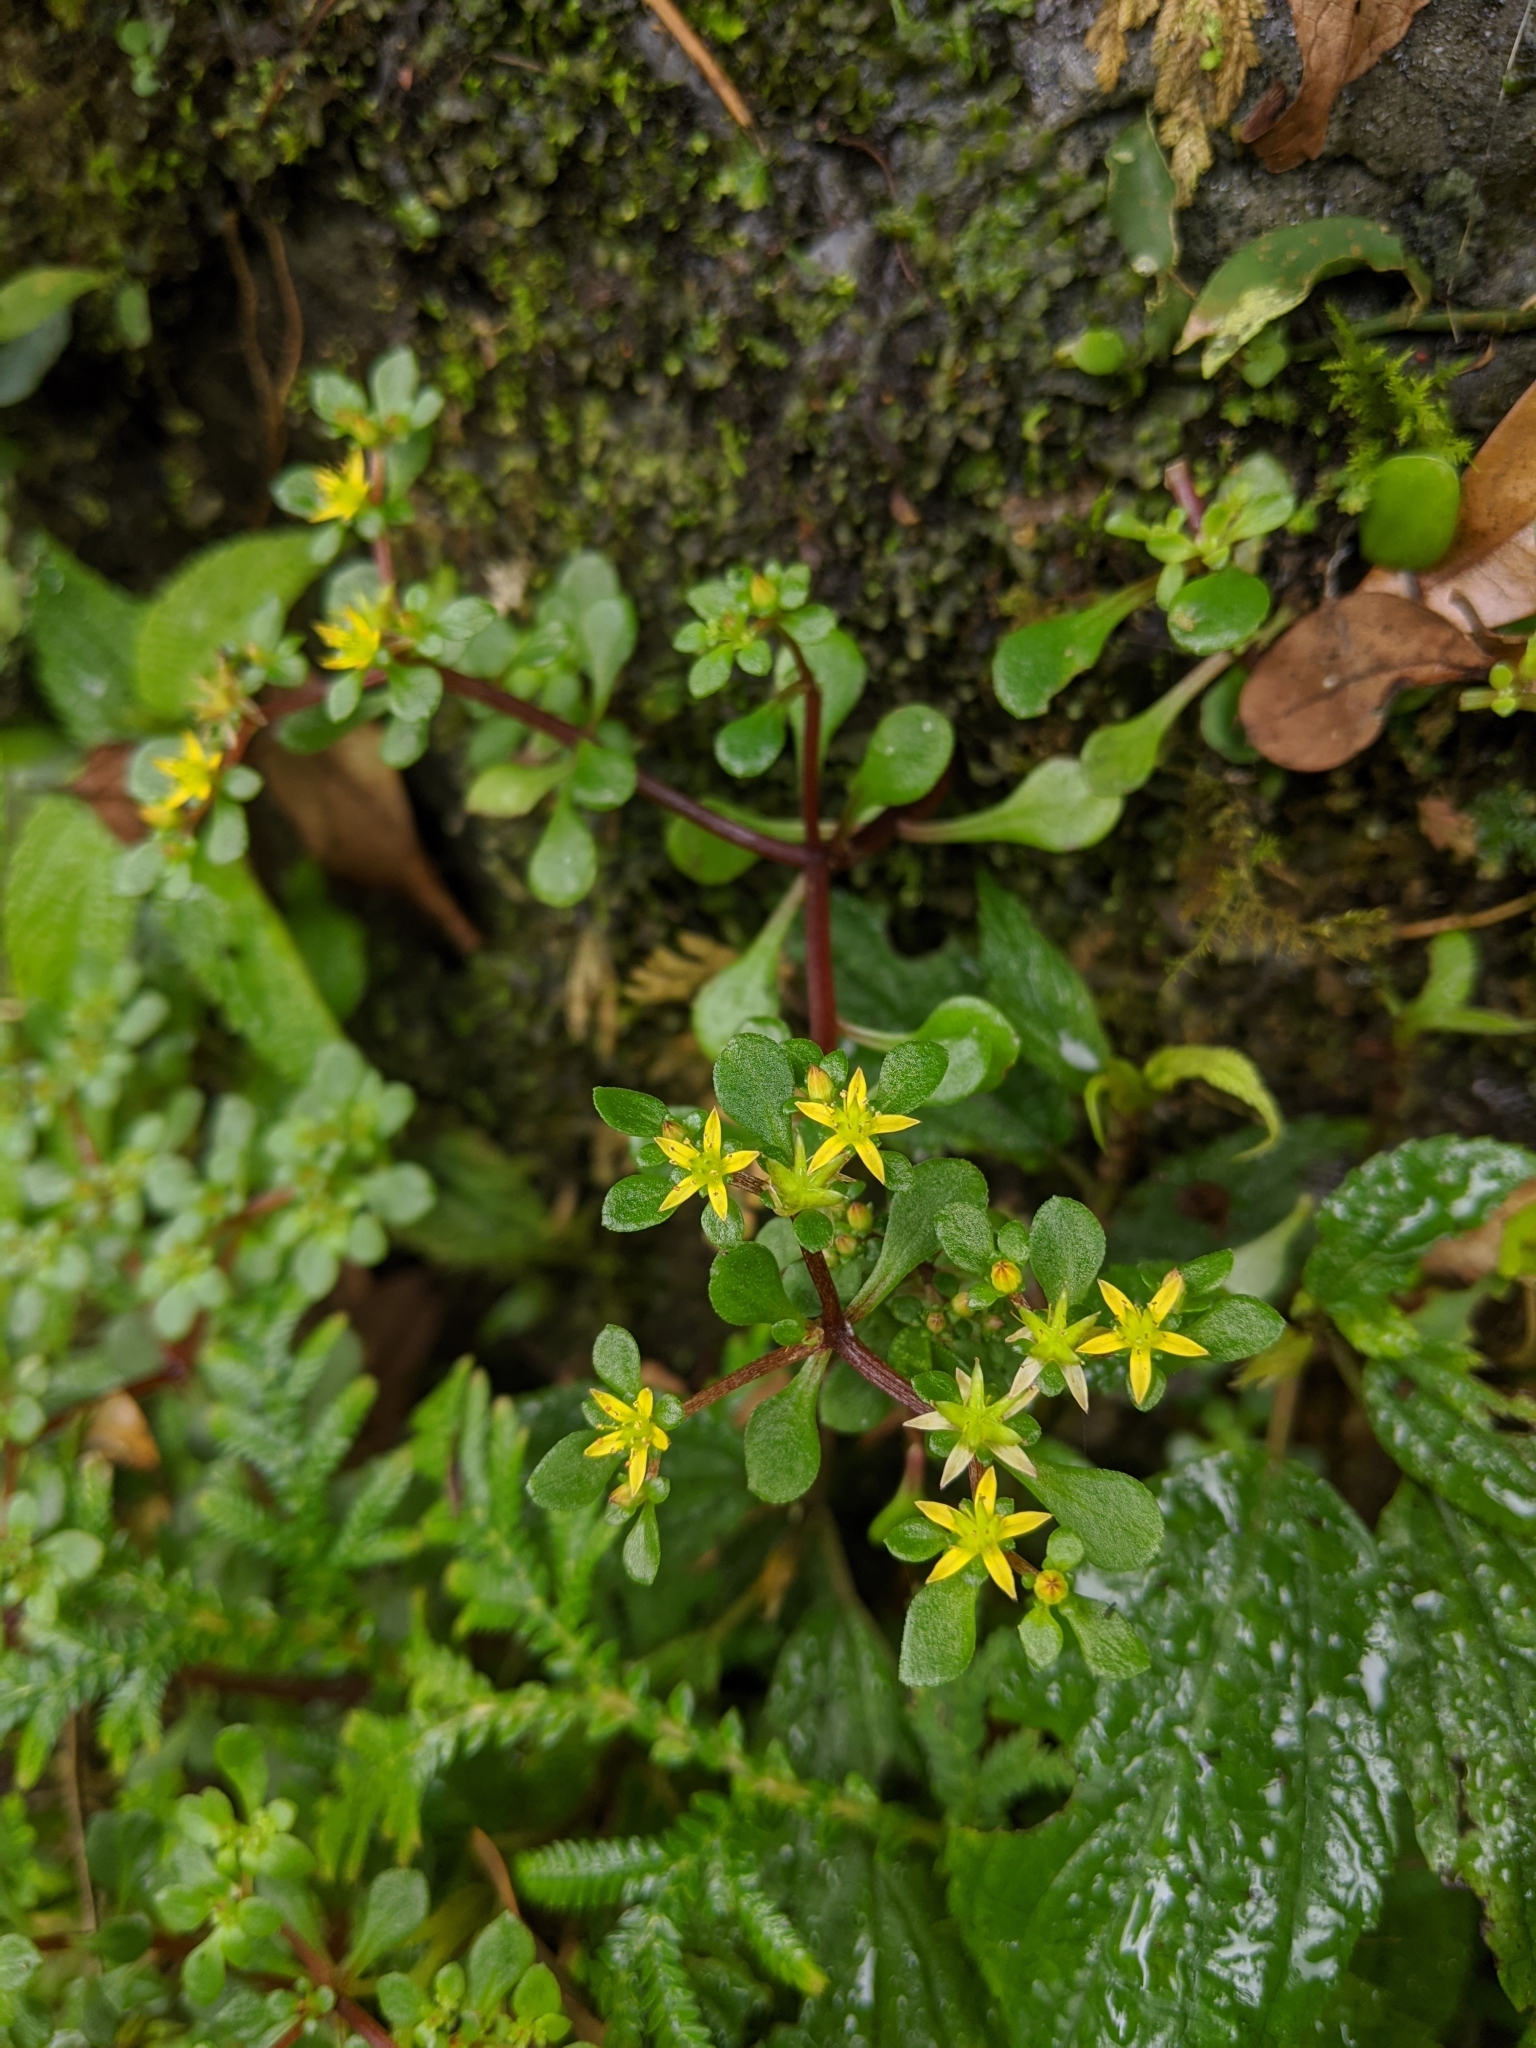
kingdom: Plantae
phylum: Tracheophyta
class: Magnoliopsida
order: Saxifragales
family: Crassulaceae
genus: Sedum
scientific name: Sedum actinocarpum
